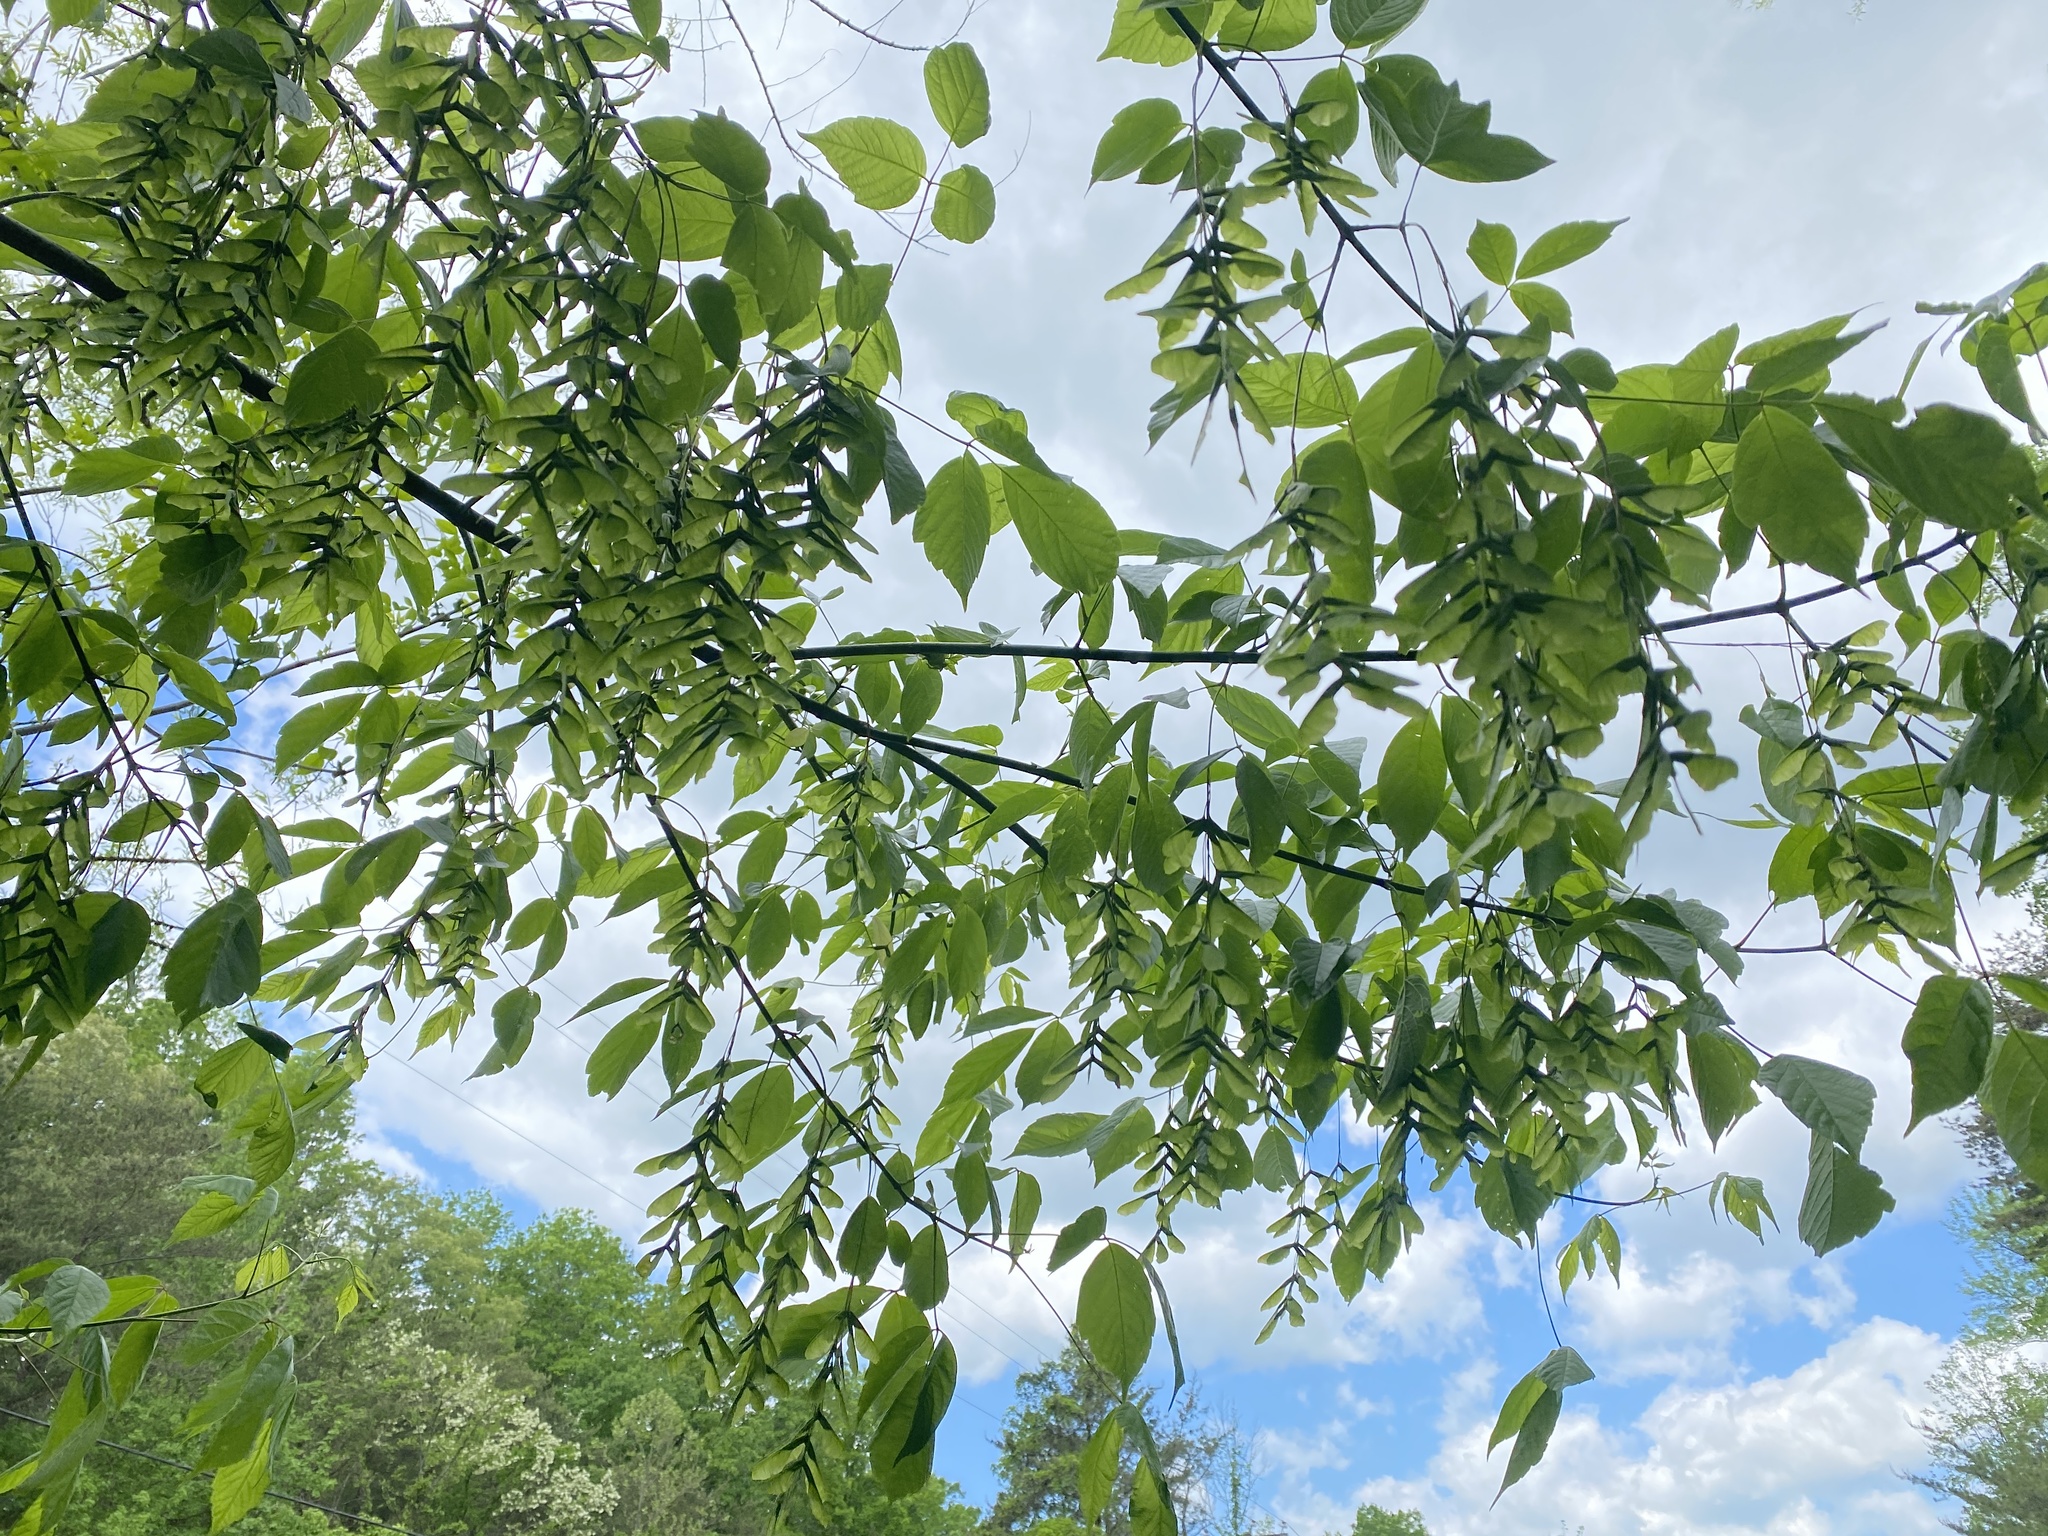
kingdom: Plantae
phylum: Tracheophyta
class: Magnoliopsida
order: Sapindales
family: Sapindaceae
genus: Acer
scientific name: Acer negundo
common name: Ashleaf maple
